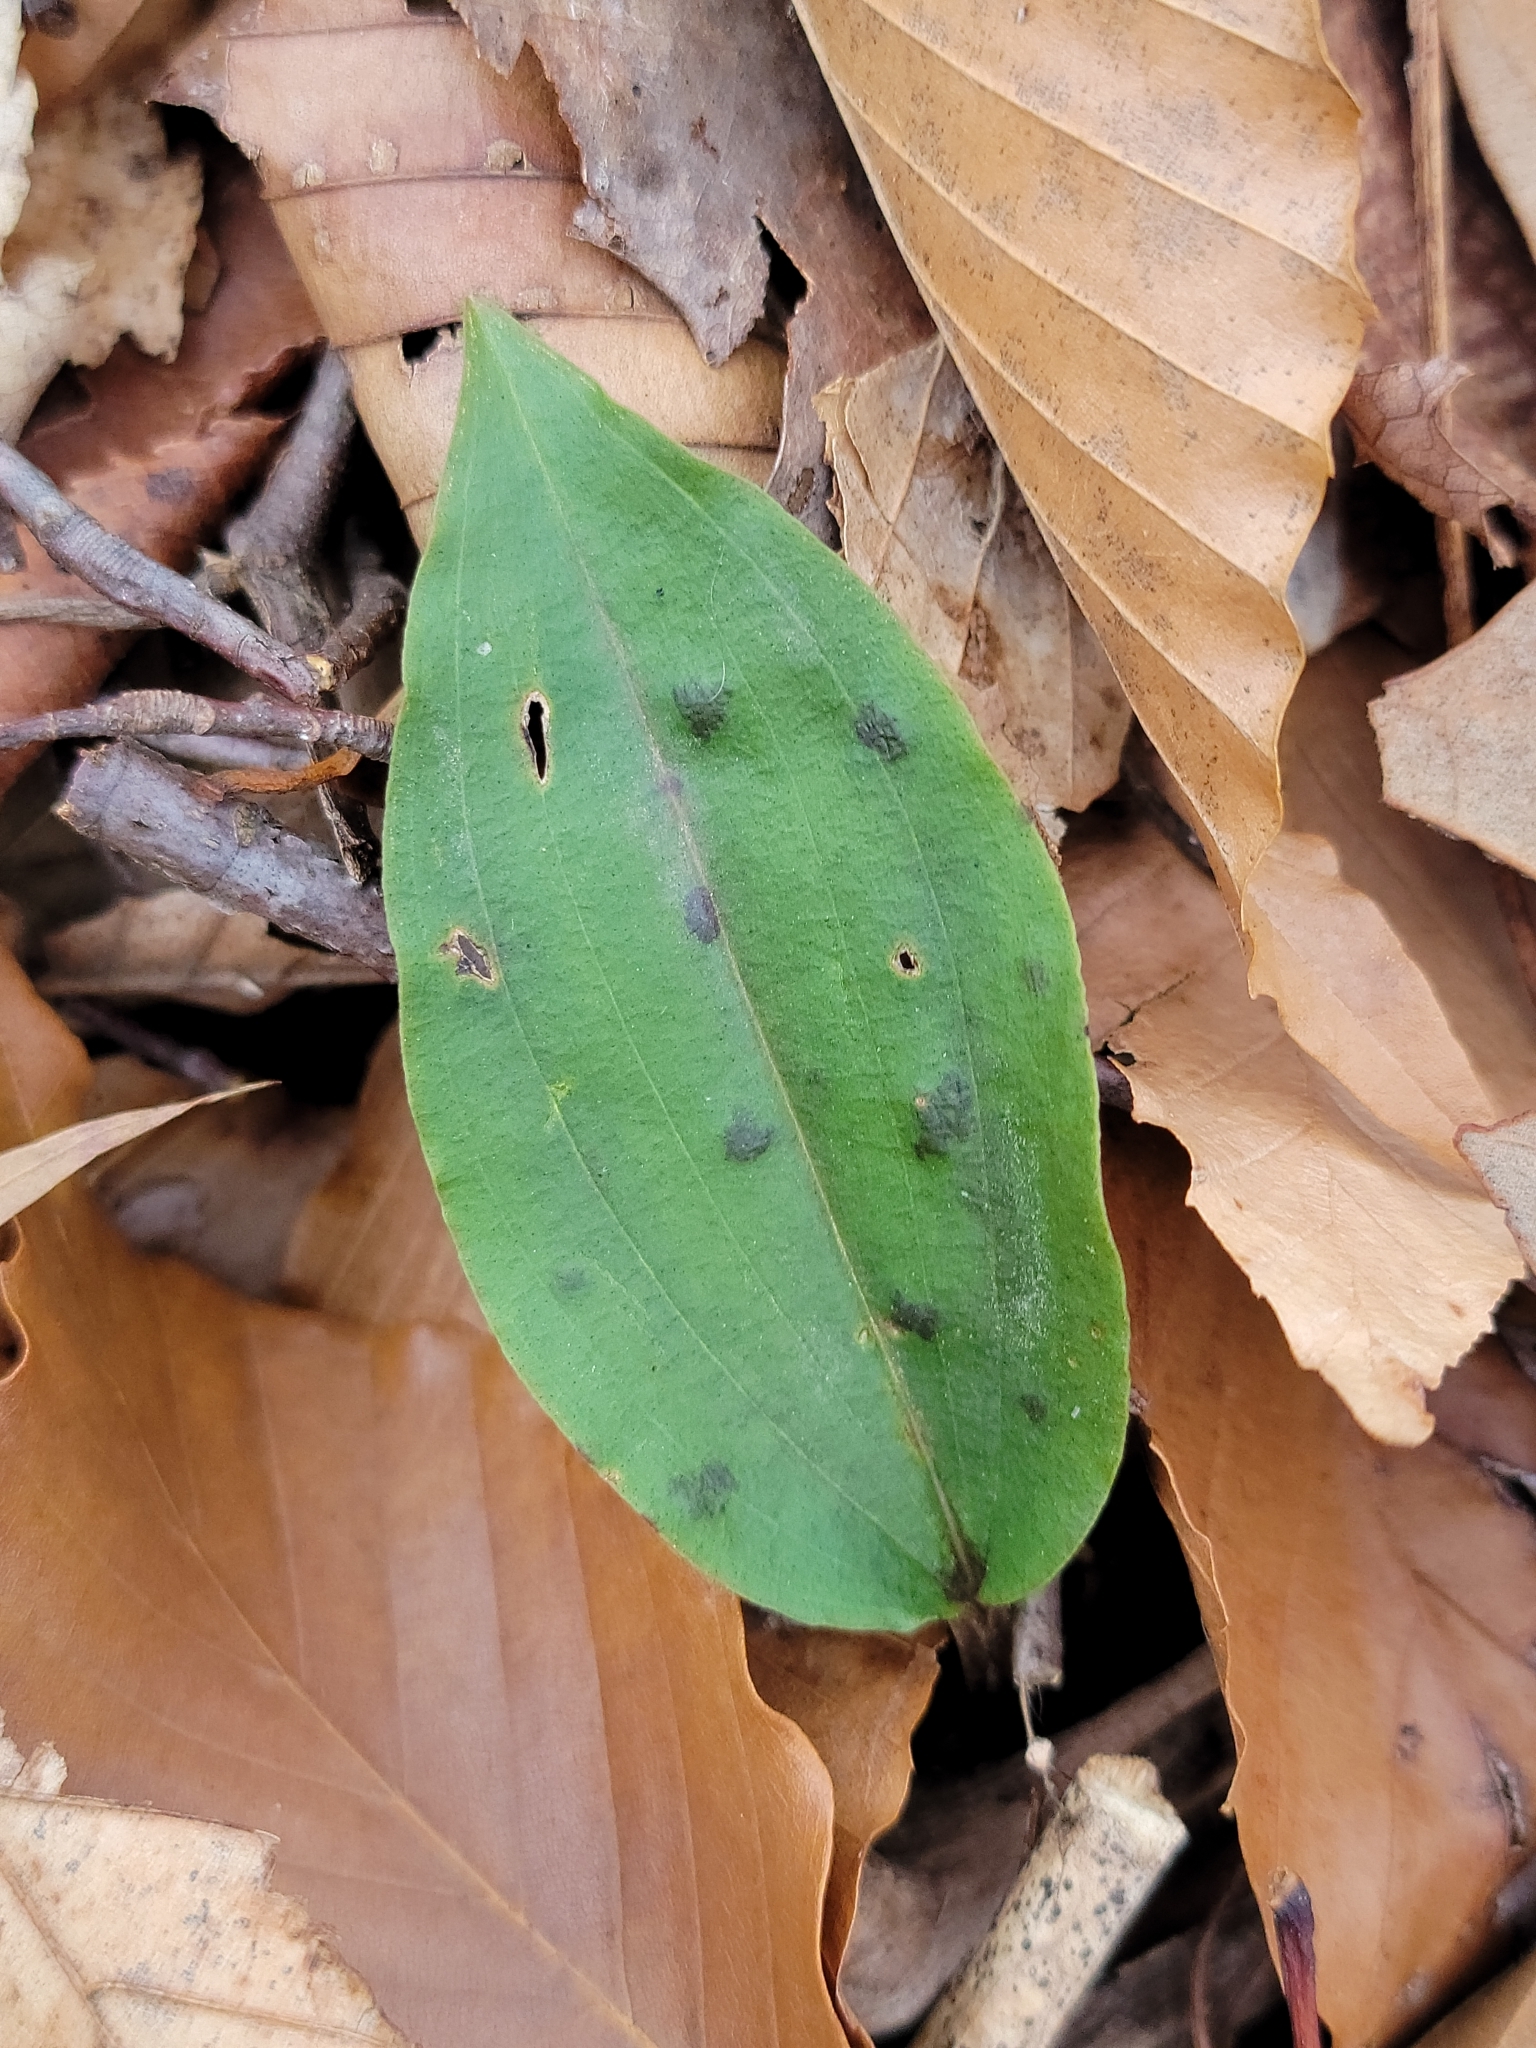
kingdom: Plantae
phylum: Tracheophyta
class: Liliopsida
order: Asparagales
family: Orchidaceae
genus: Tipularia
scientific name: Tipularia discolor
